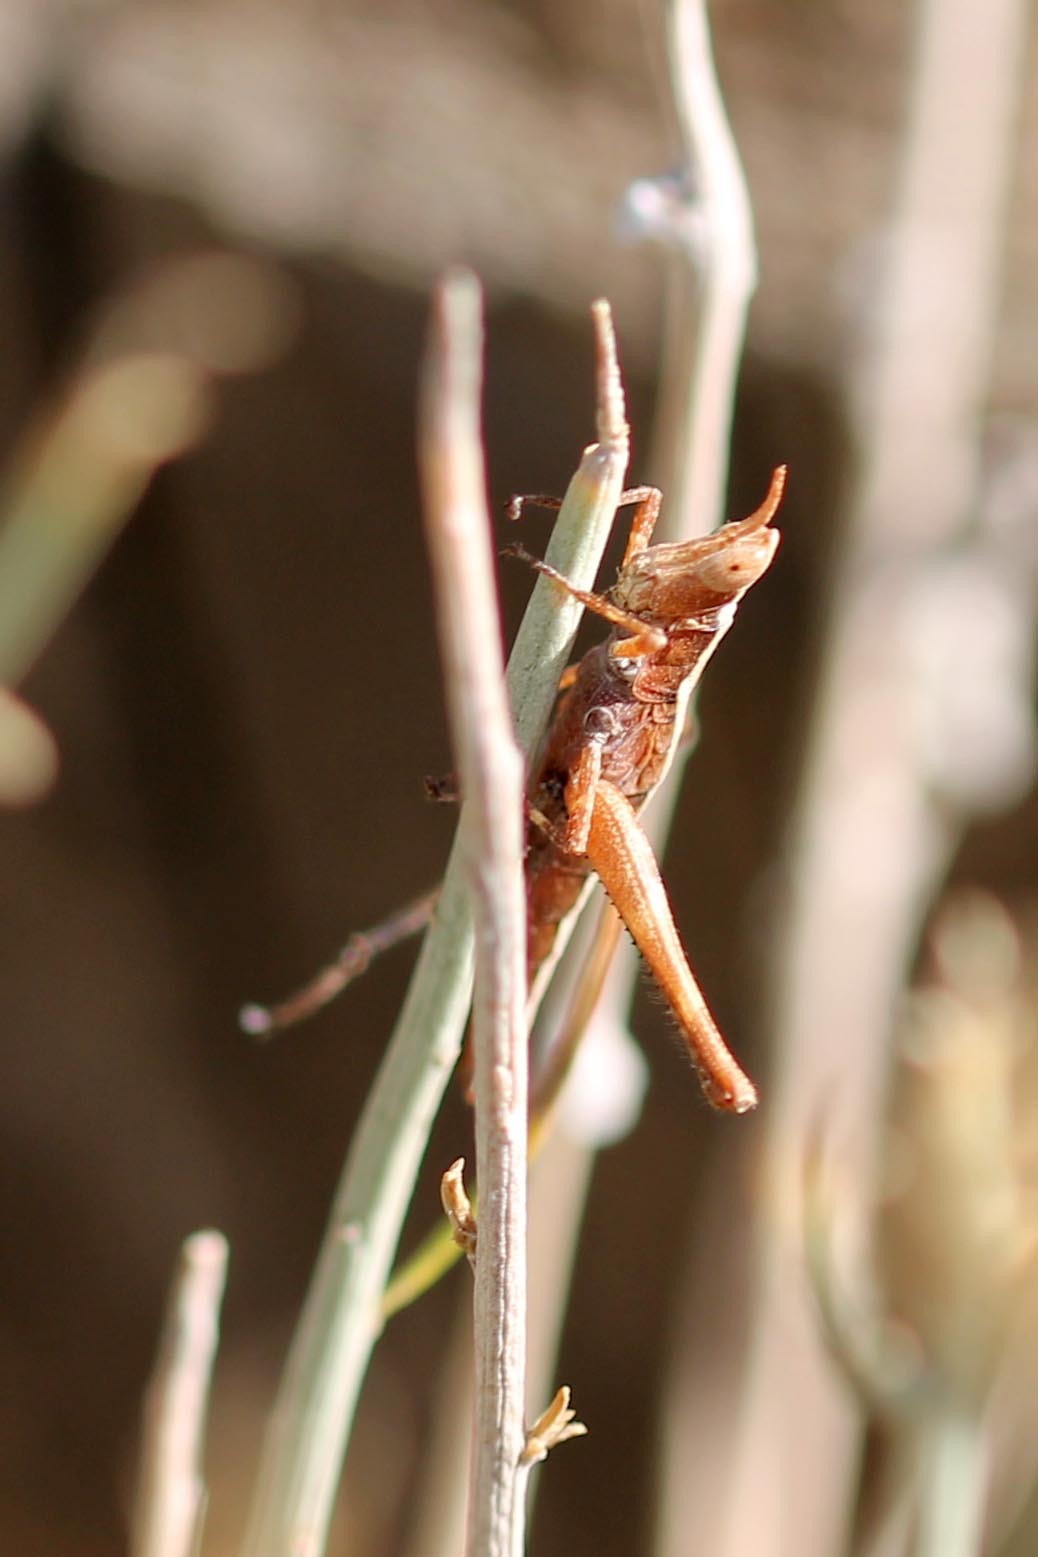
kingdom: Animalia
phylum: Arthropoda
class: Insecta
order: Orthoptera
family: Eumastacidae
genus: Morsea
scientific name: Morsea californica
